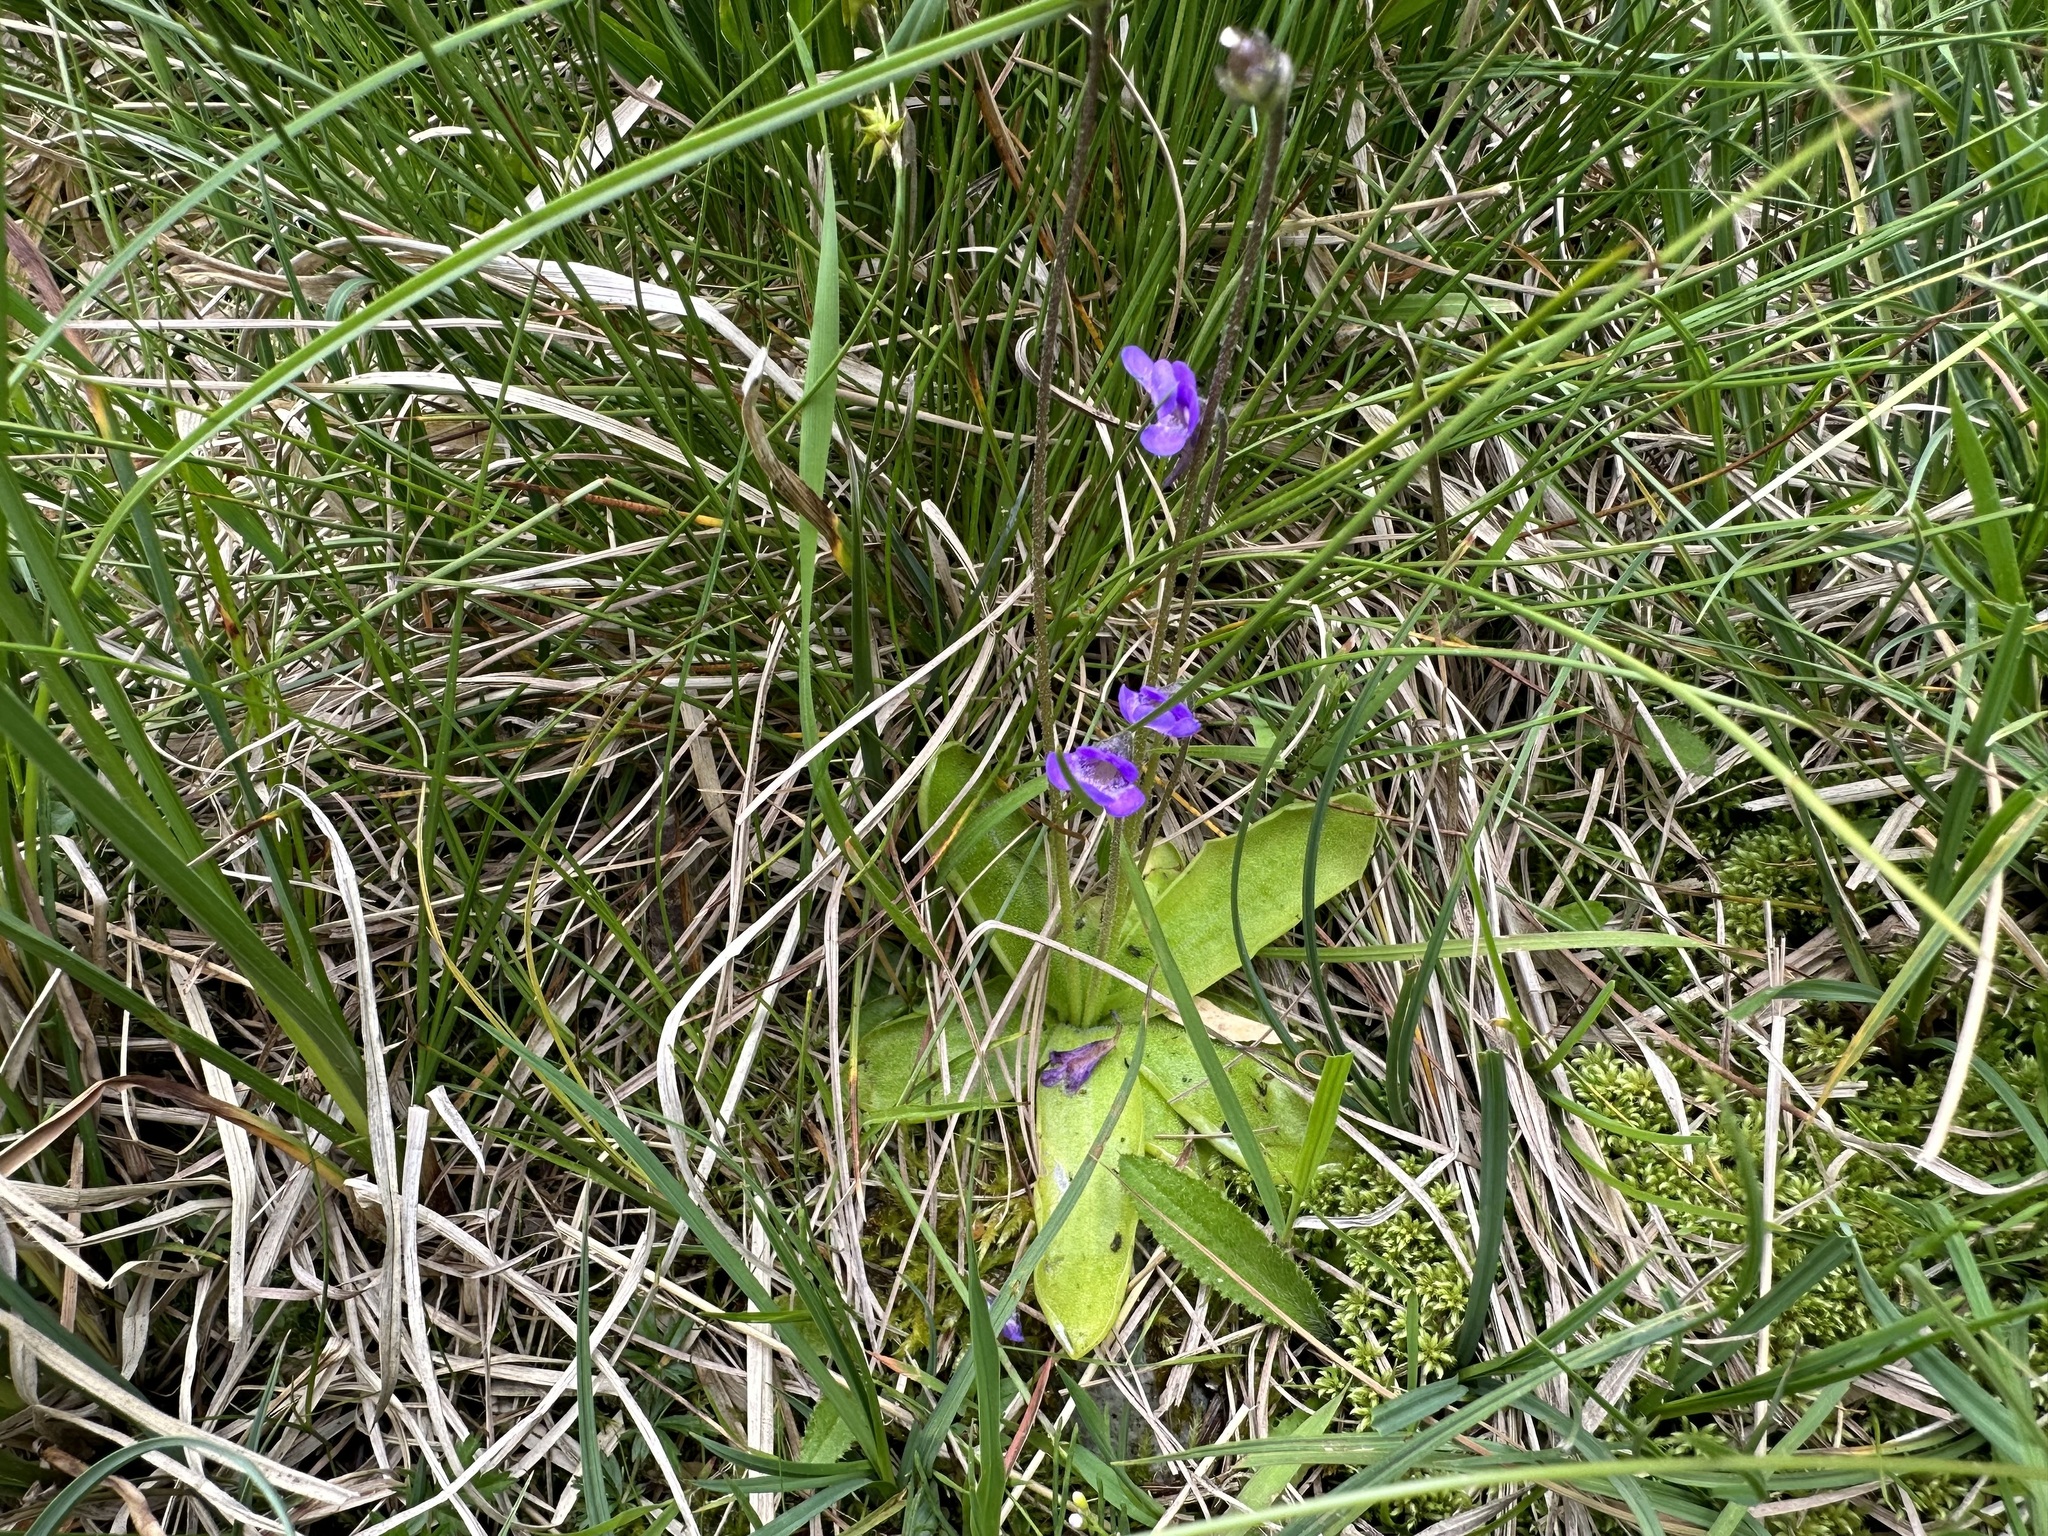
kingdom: Plantae
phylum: Tracheophyta
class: Magnoliopsida
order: Lamiales
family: Lentibulariaceae
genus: Pinguicula
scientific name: Pinguicula vulgaris
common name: Common butterwort
